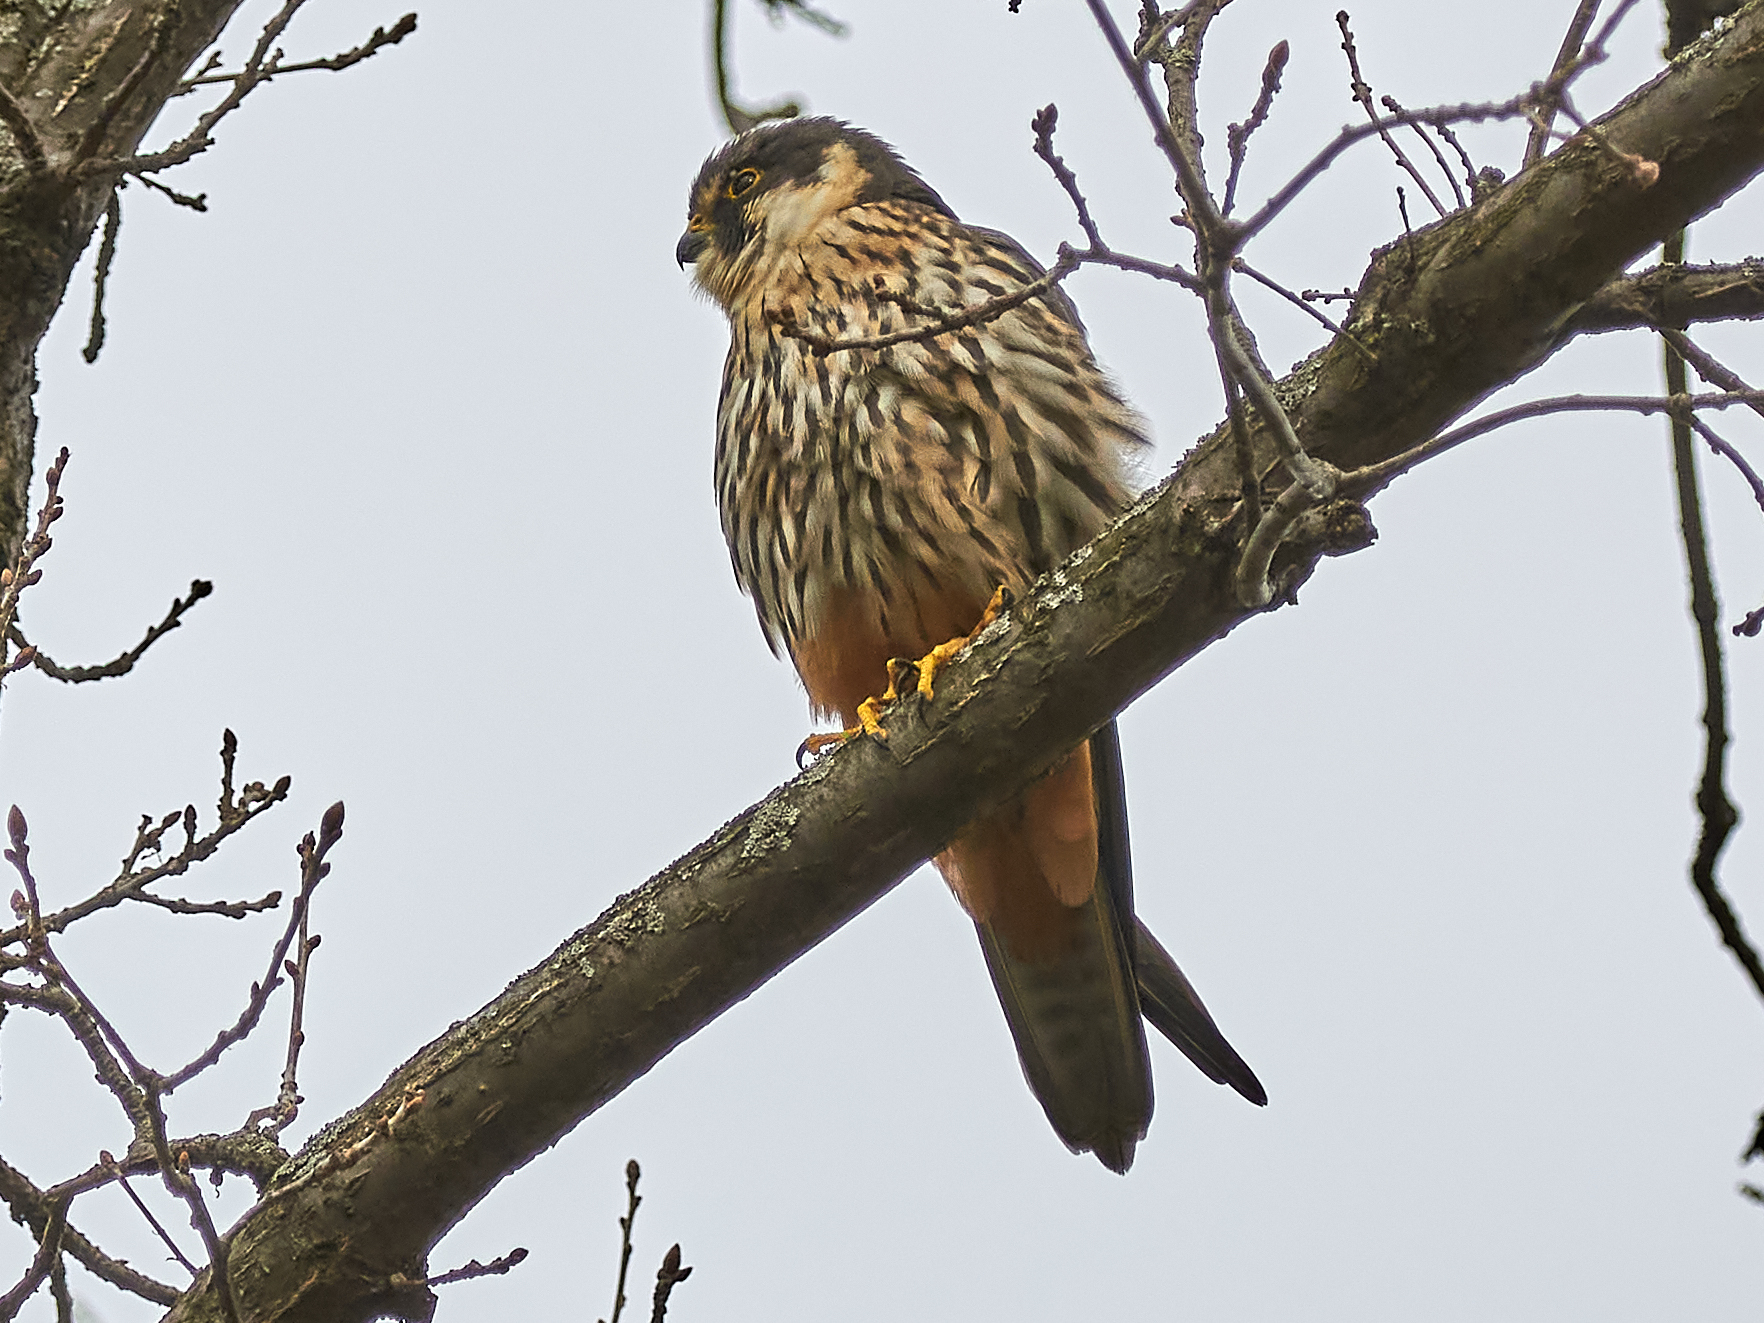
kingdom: Animalia
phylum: Chordata
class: Aves
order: Falconiformes
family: Falconidae
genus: Falco
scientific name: Falco subbuteo
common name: Eurasian hobby
